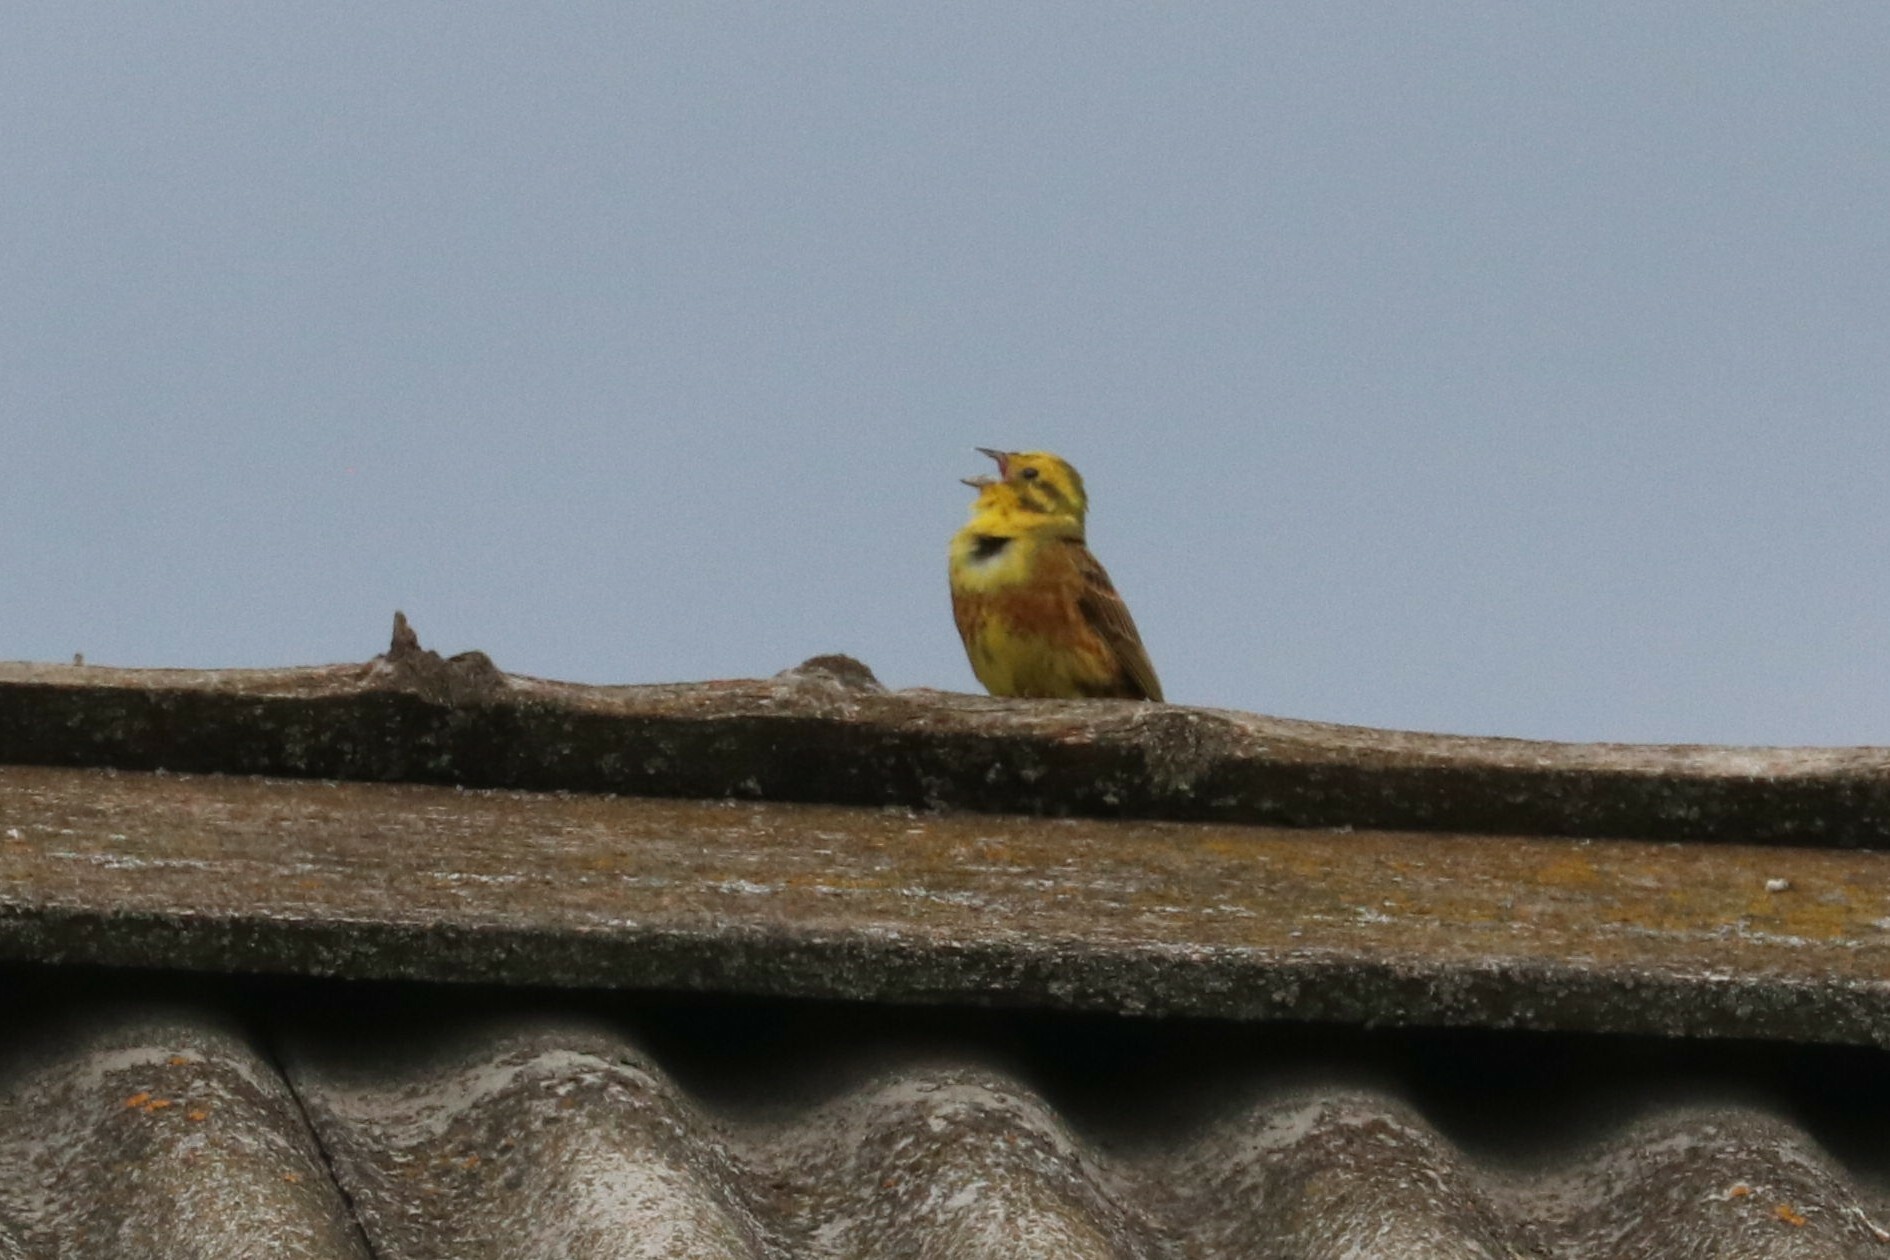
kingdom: Animalia
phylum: Chordata
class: Aves
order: Passeriformes
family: Emberizidae
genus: Emberiza
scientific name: Emberiza citrinella
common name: Yellowhammer
